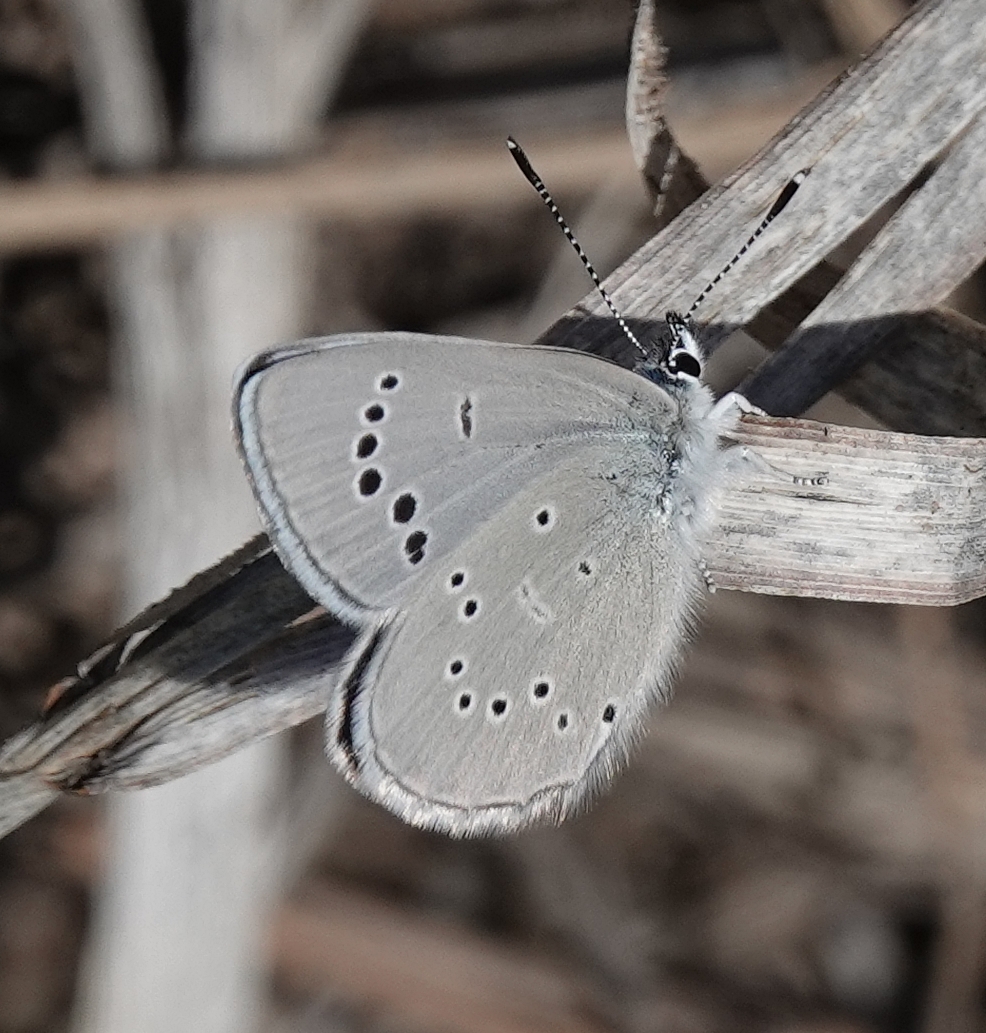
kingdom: Animalia
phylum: Arthropoda
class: Insecta
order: Lepidoptera
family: Lycaenidae
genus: Glaucopsyche
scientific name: Glaucopsyche lygdamus
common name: Silvery blue
